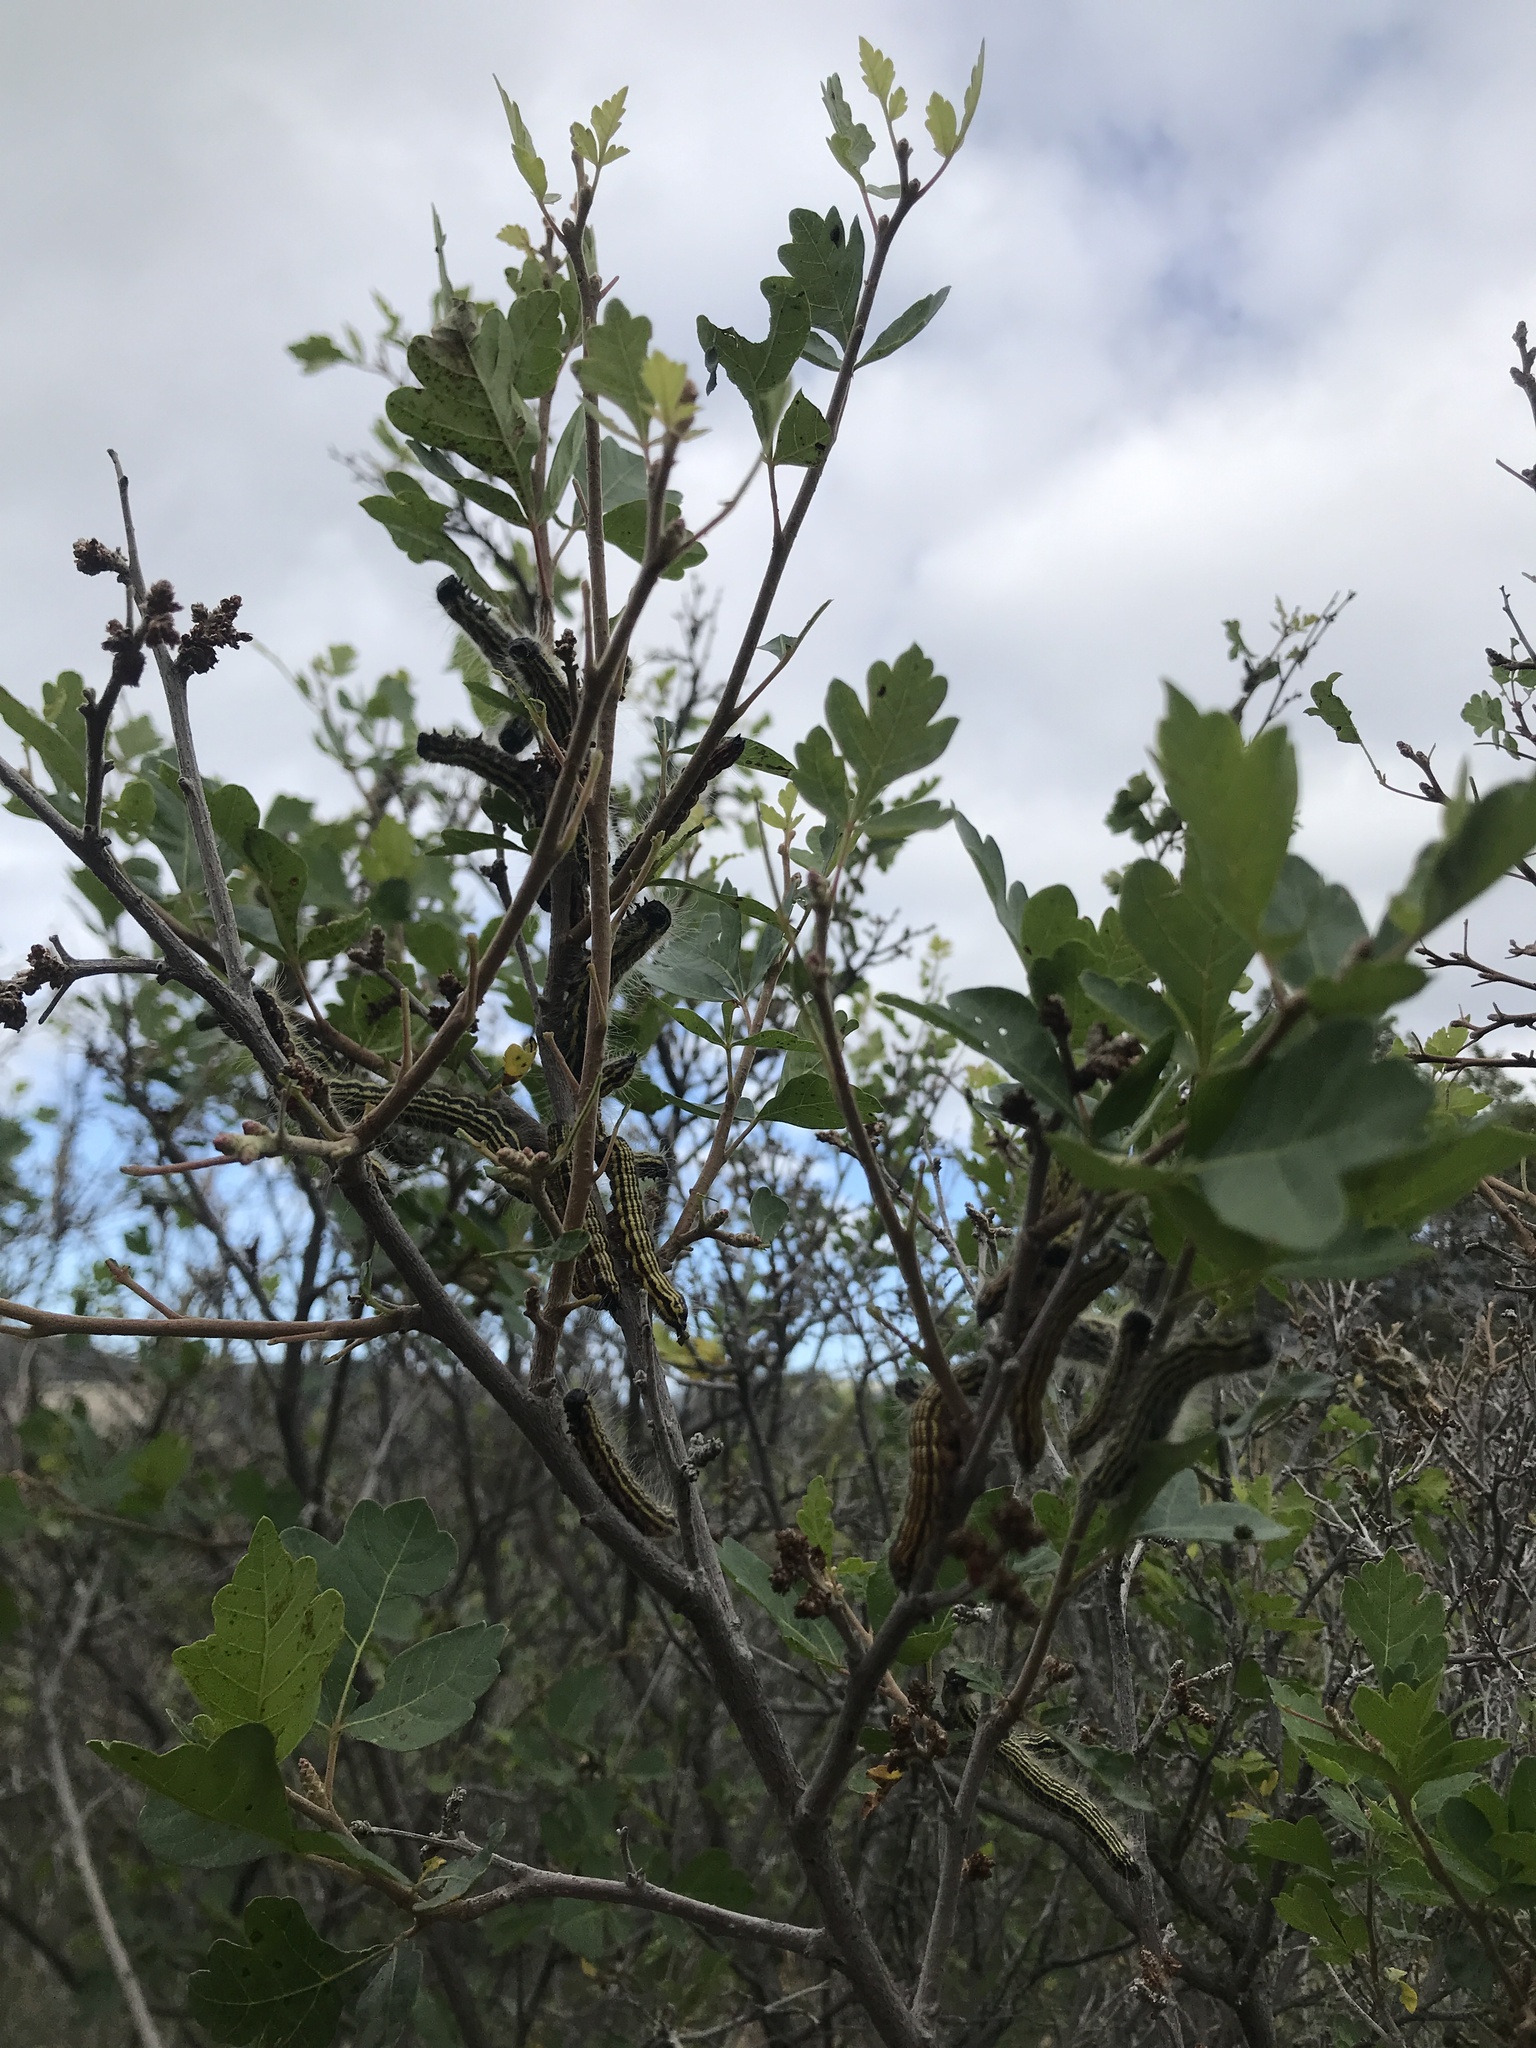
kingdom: Animalia
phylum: Arthropoda
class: Insecta
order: Lepidoptera
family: Notodontidae
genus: Datana
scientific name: Datana perspicua
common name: Spotted datana
